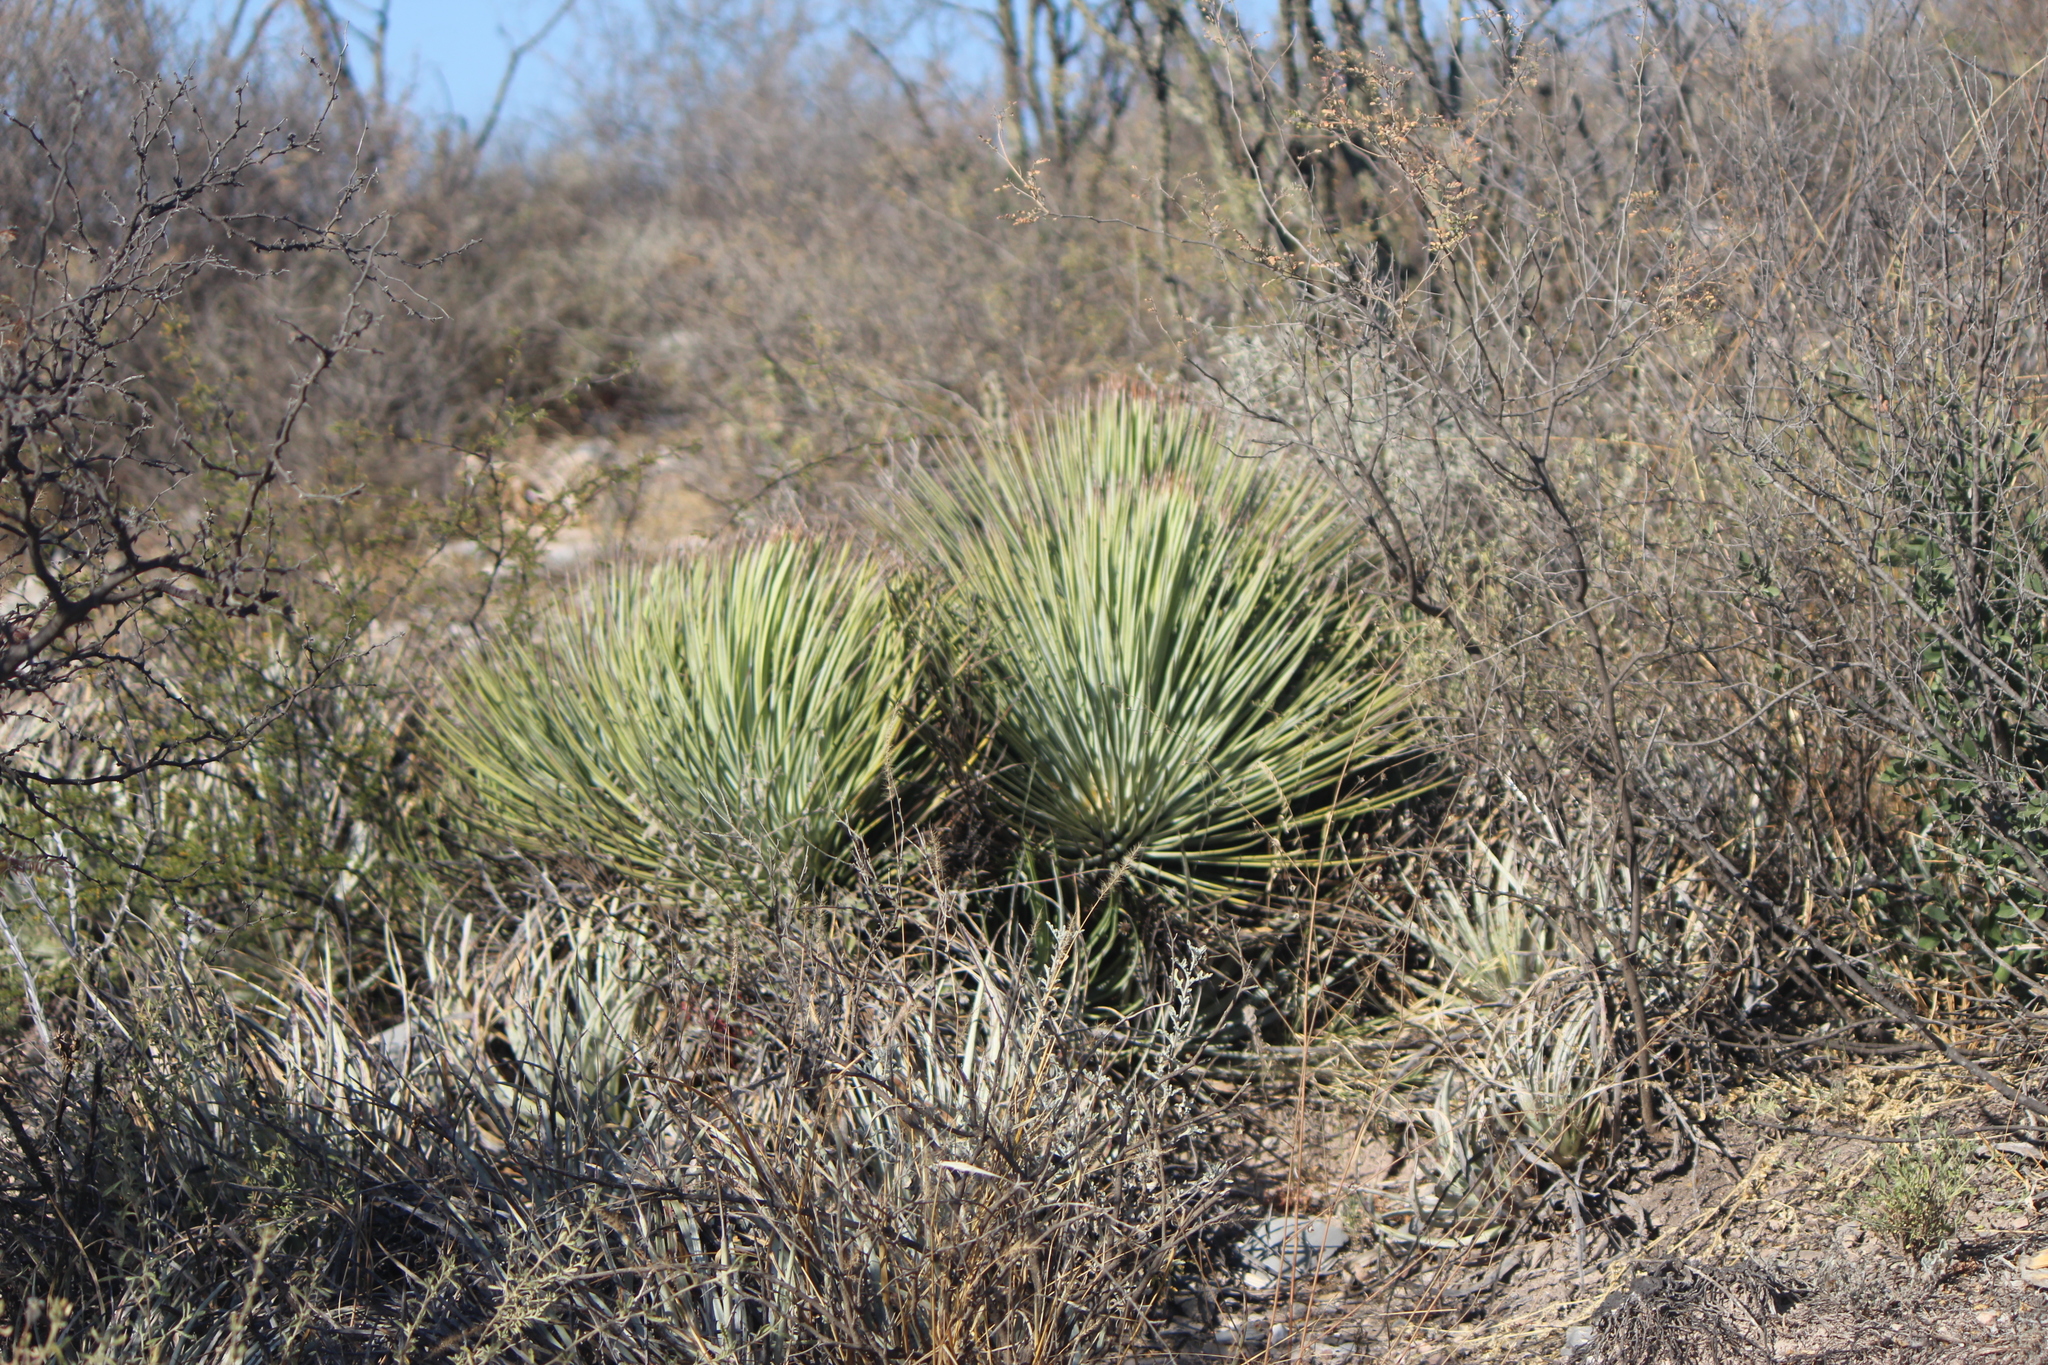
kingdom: Plantae
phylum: Tracheophyta
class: Liliopsida
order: Asparagales
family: Asparagaceae
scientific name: Asparagaceae
